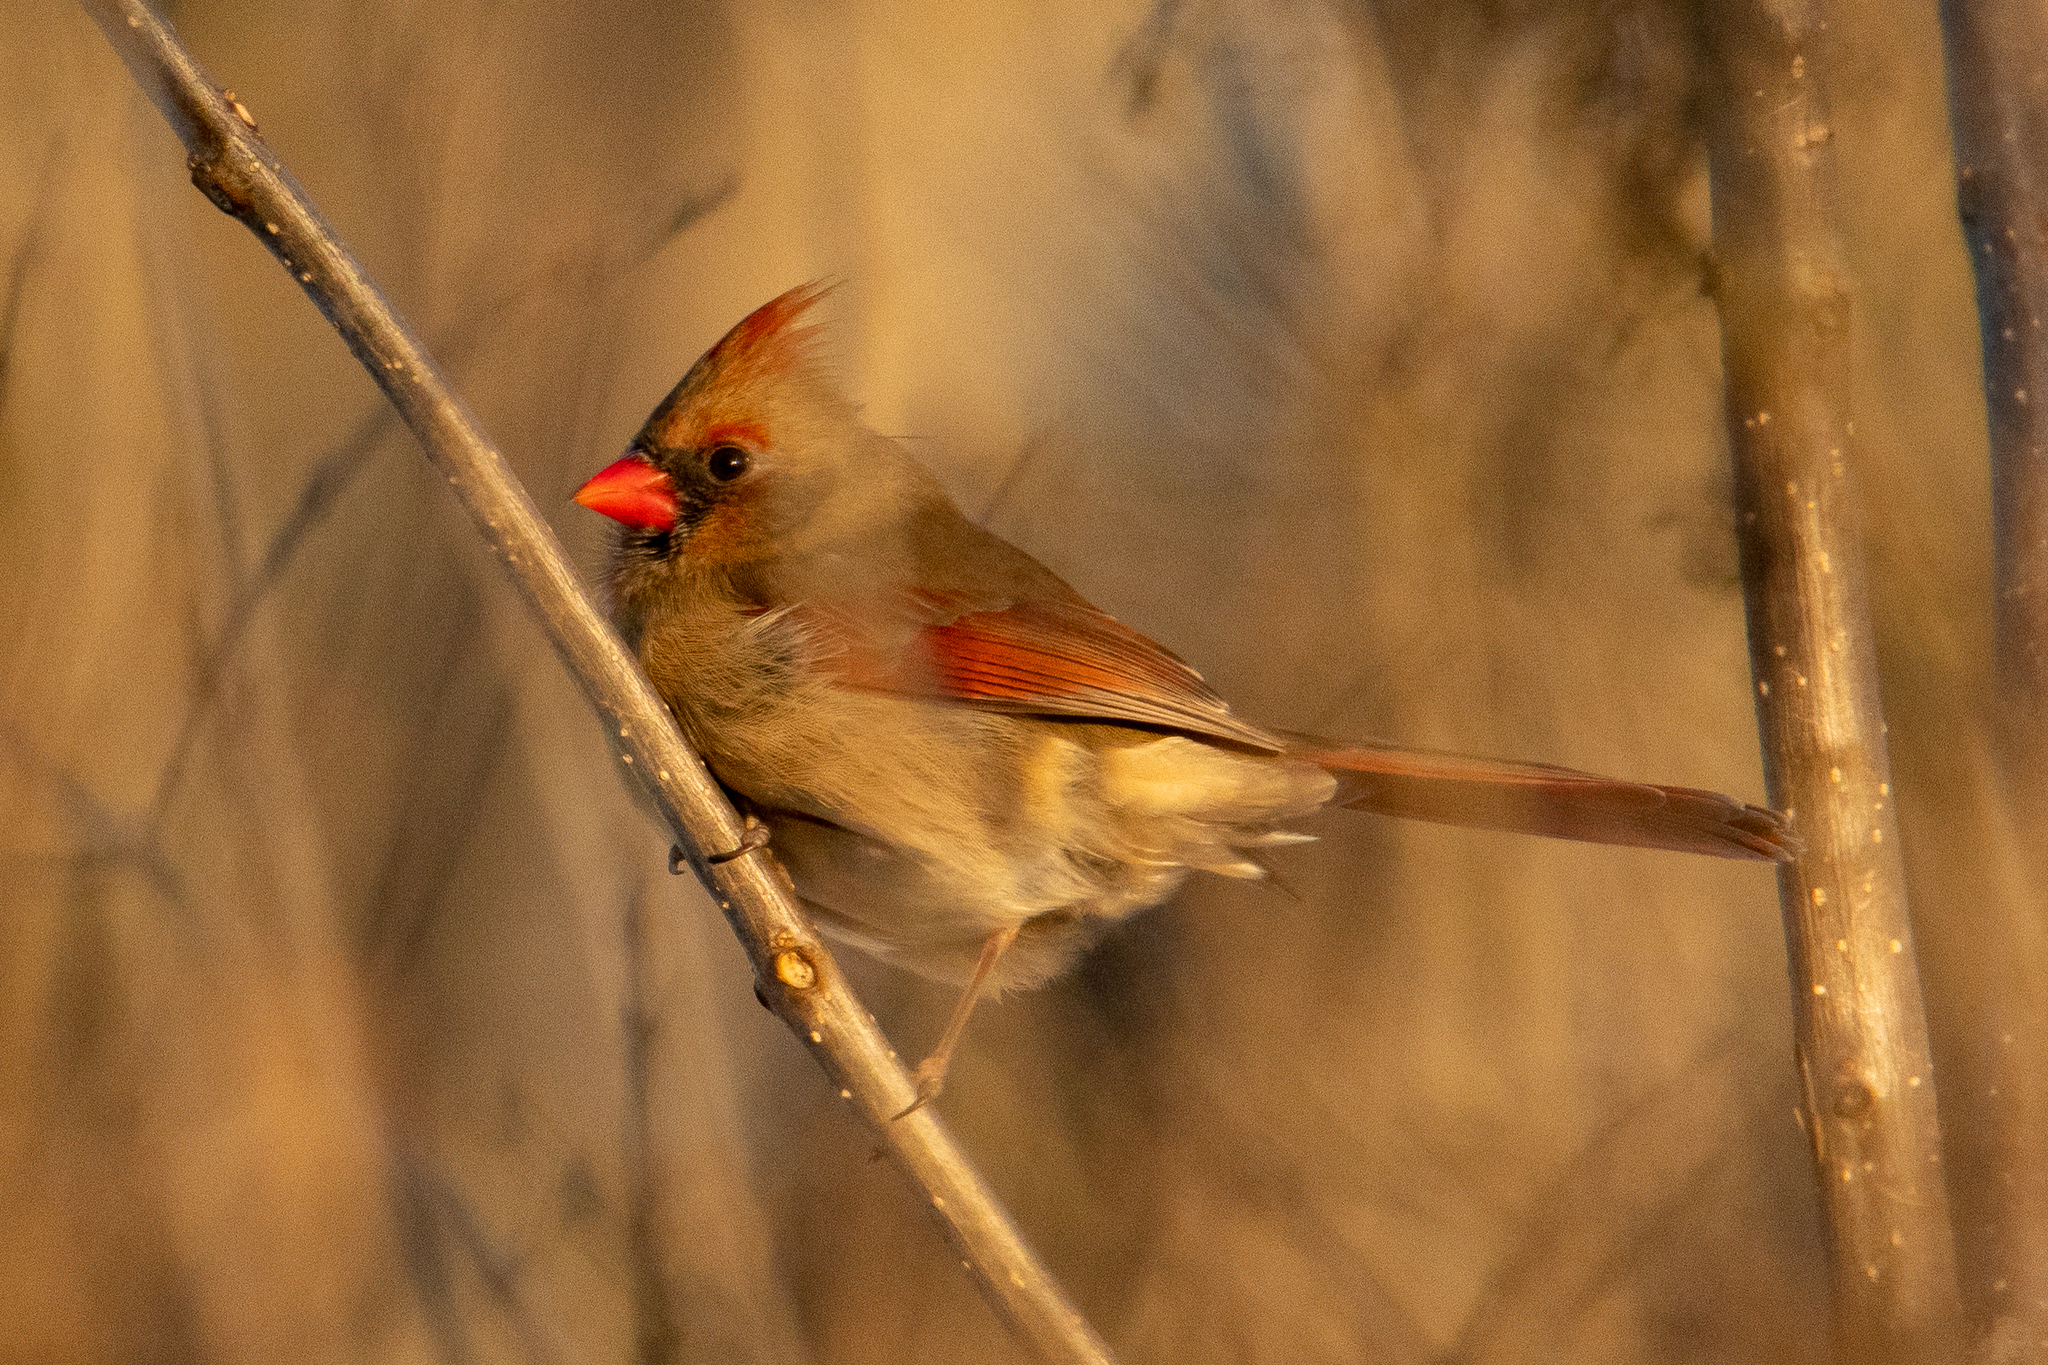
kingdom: Animalia
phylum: Chordata
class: Aves
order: Passeriformes
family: Cardinalidae
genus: Cardinalis
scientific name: Cardinalis cardinalis
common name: Northern cardinal
